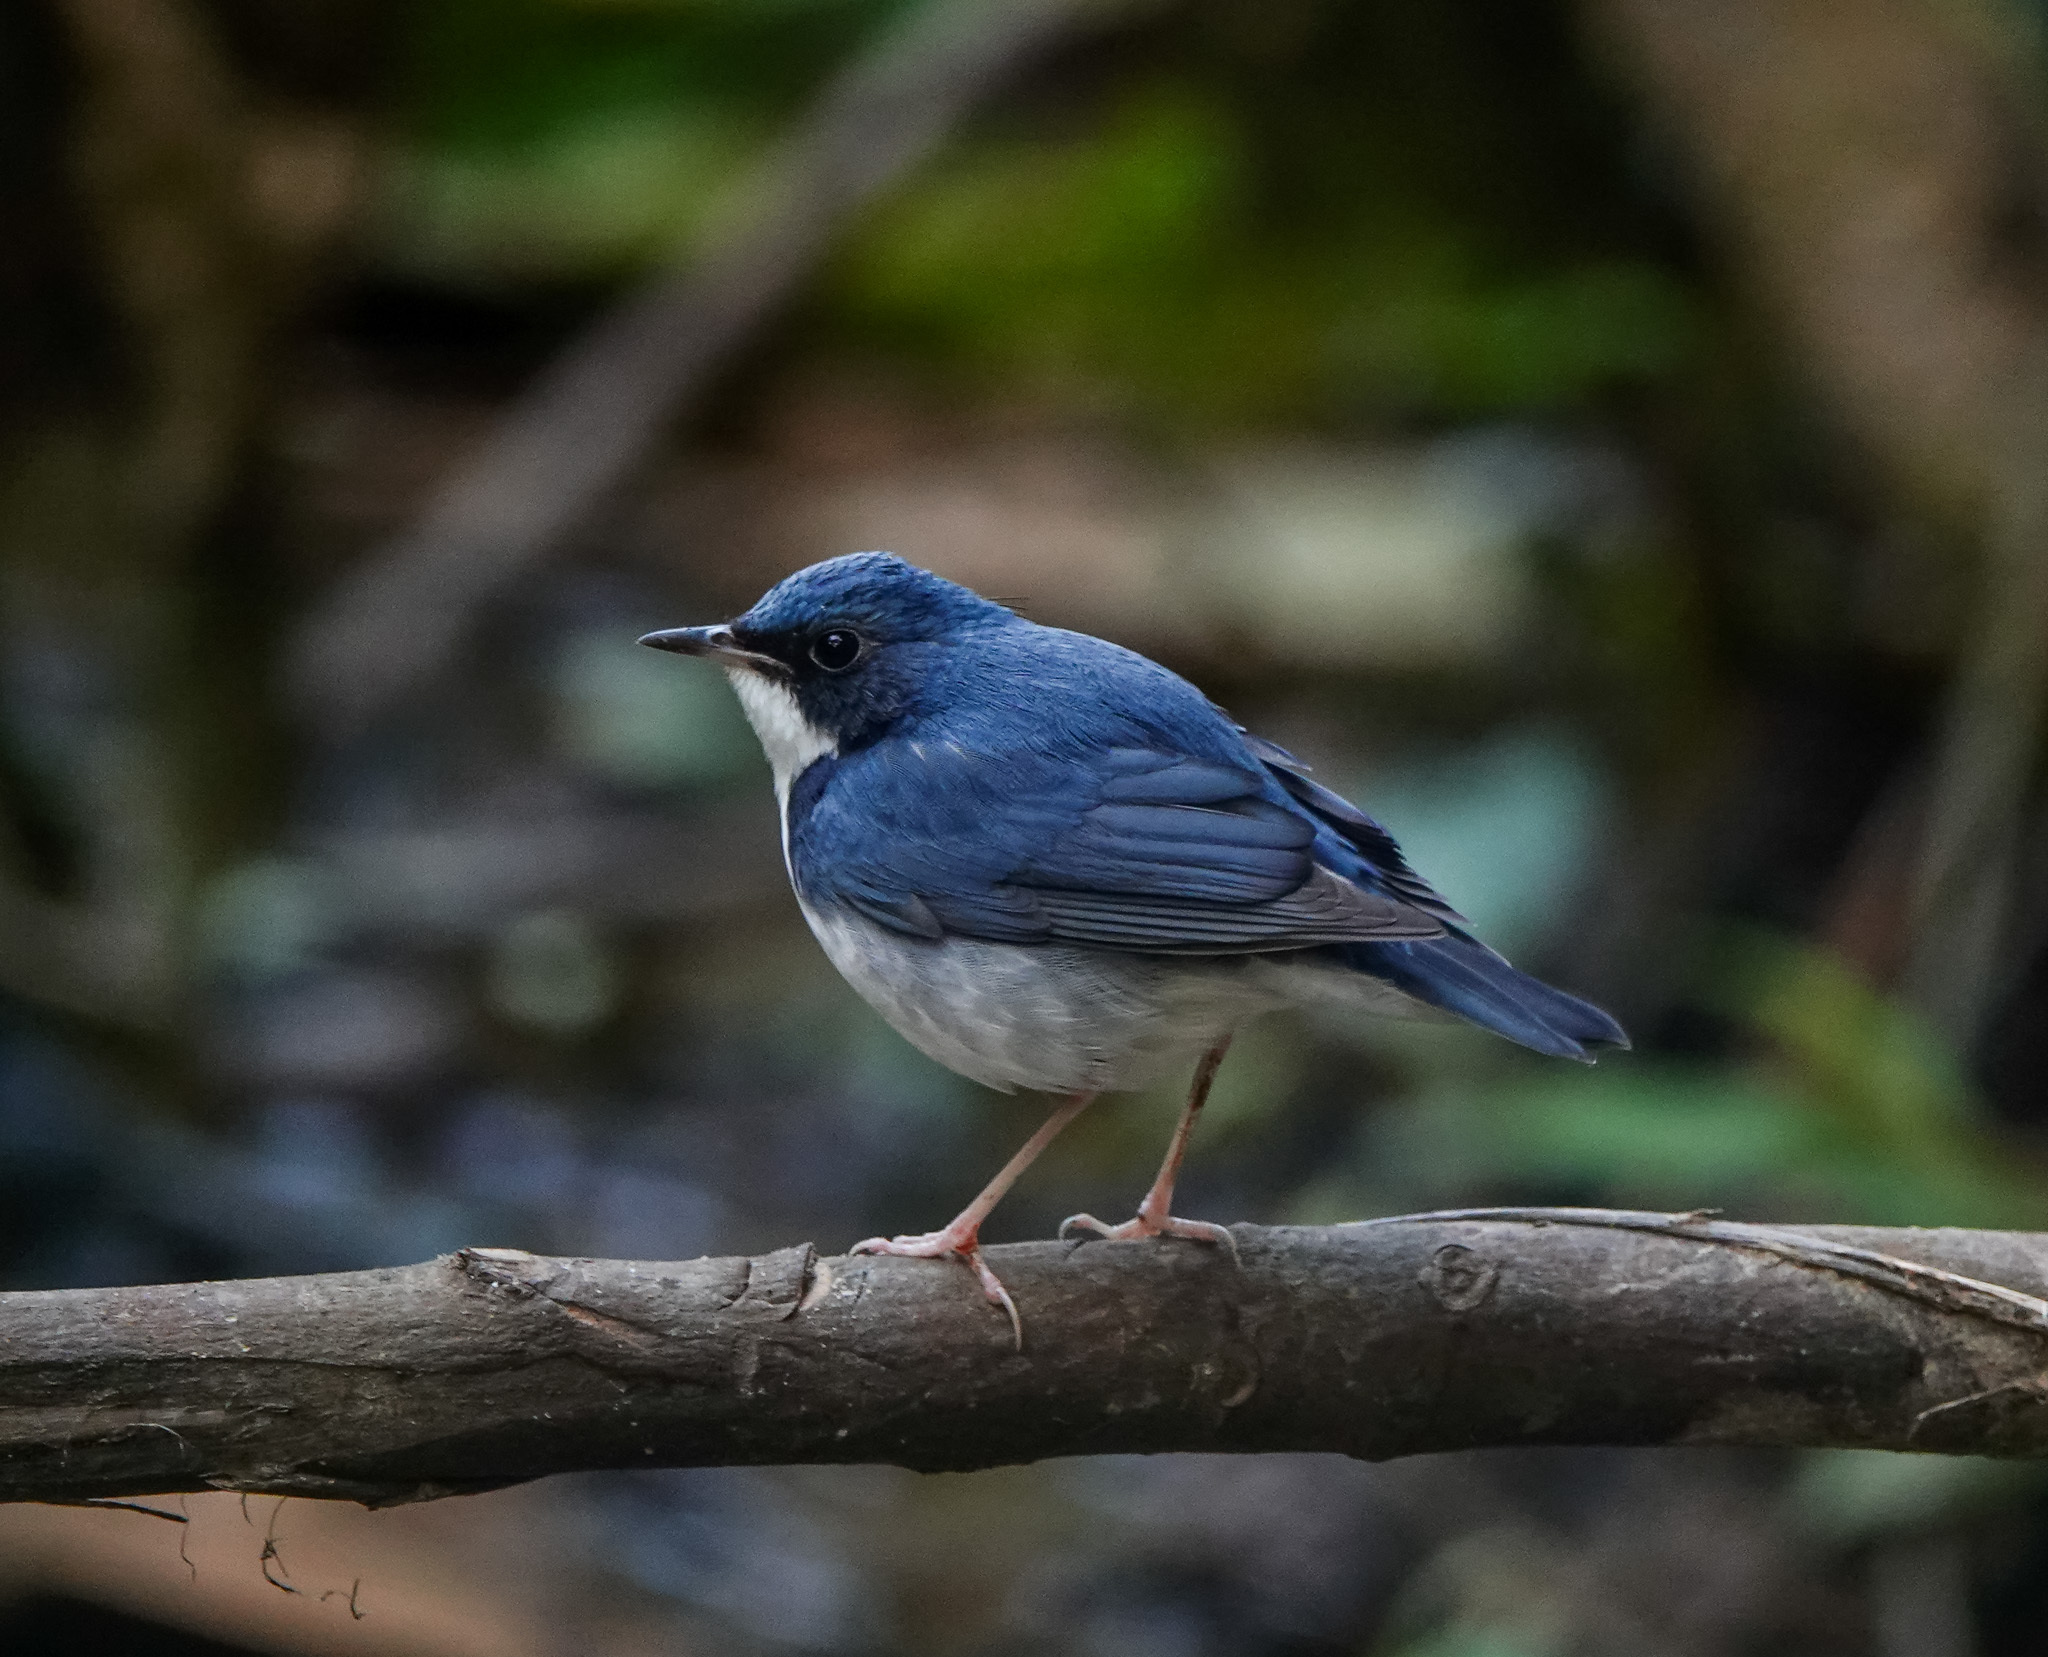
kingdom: Animalia
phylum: Chordata
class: Aves
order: Passeriformes
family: Muscicapidae
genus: Luscinia
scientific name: Luscinia cyane
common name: Siberian blue robin
